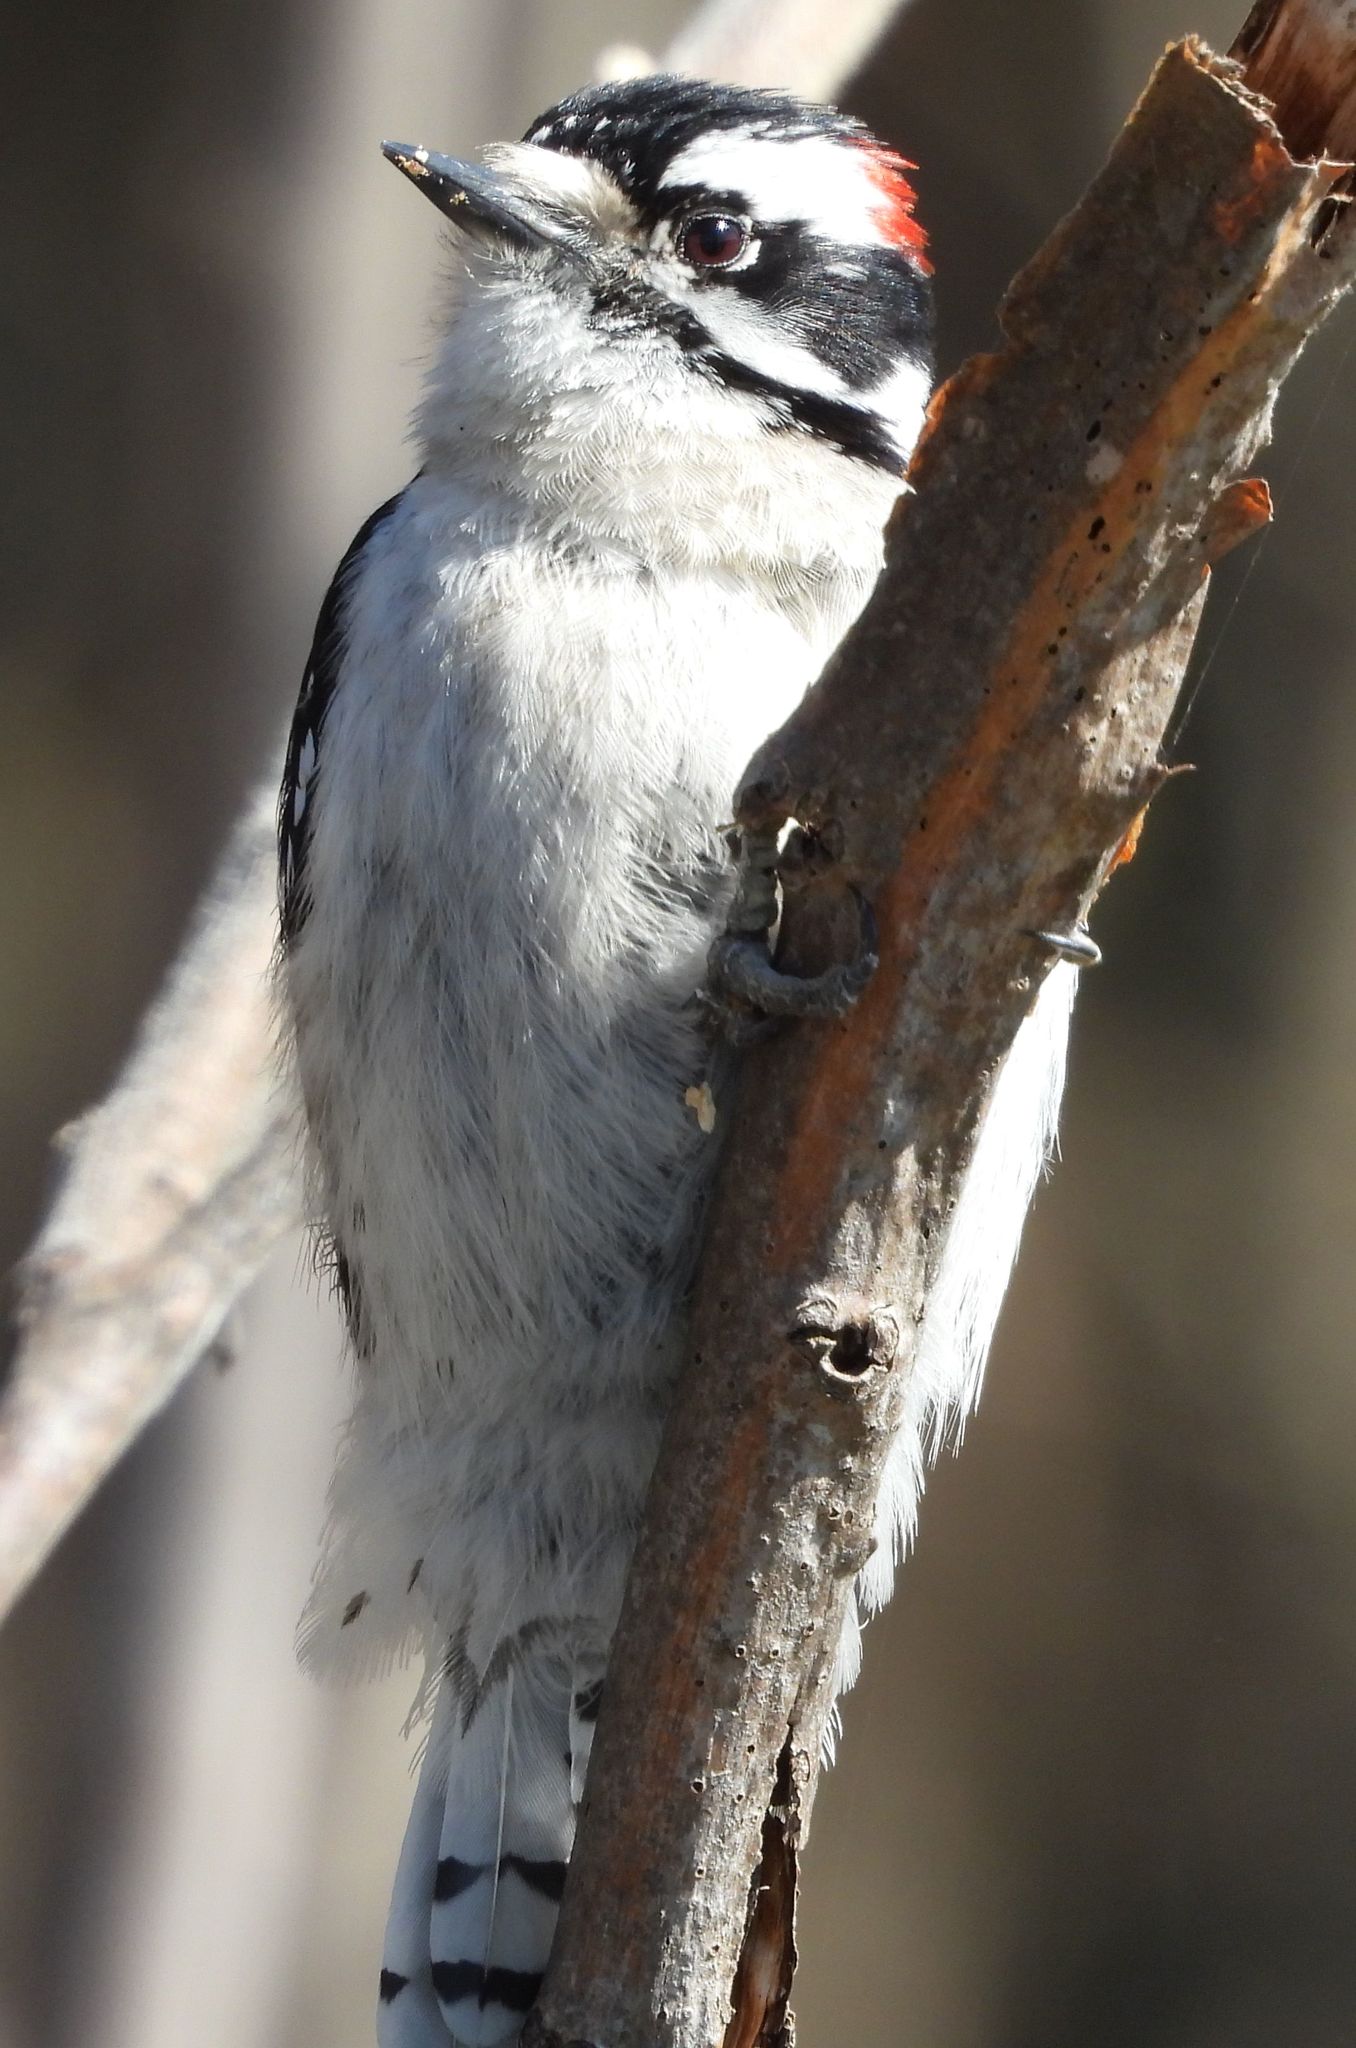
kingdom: Animalia
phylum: Chordata
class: Aves
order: Piciformes
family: Picidae
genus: Dryobates
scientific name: Dryobates pubescens
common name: Downy woodpecker
